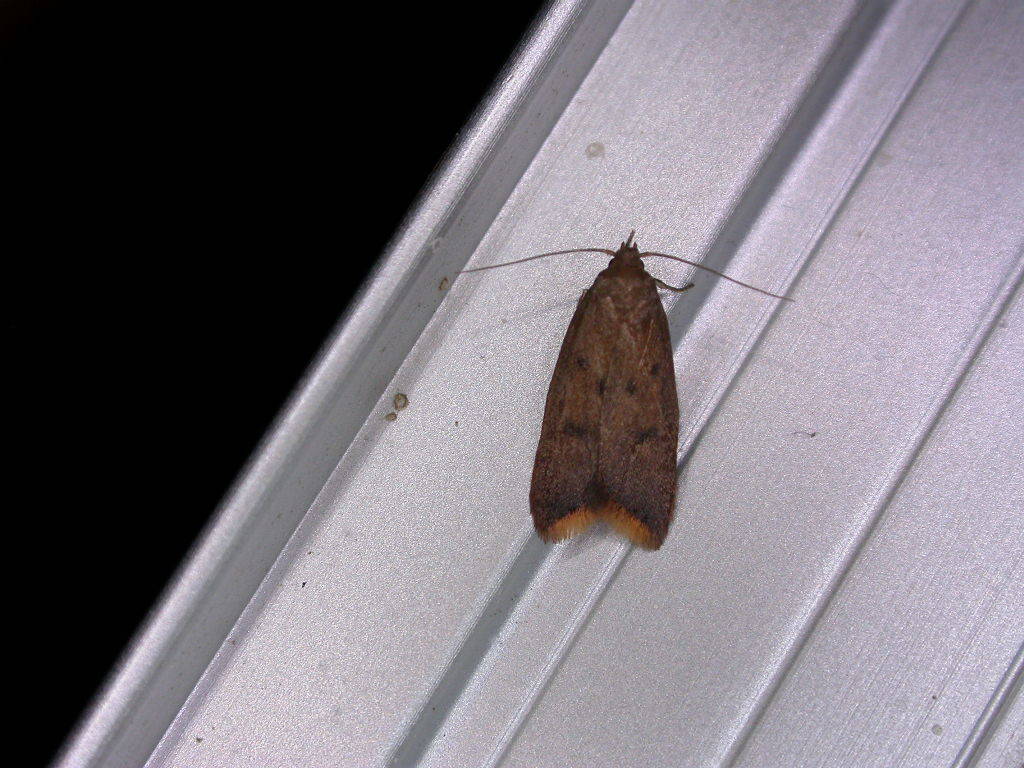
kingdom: Animalia
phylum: Arthropoda
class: Insecta
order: Lepidoptera
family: Oecophoridae
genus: Tachystola
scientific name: Tachystola acroxantha
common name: Ruddy streak
